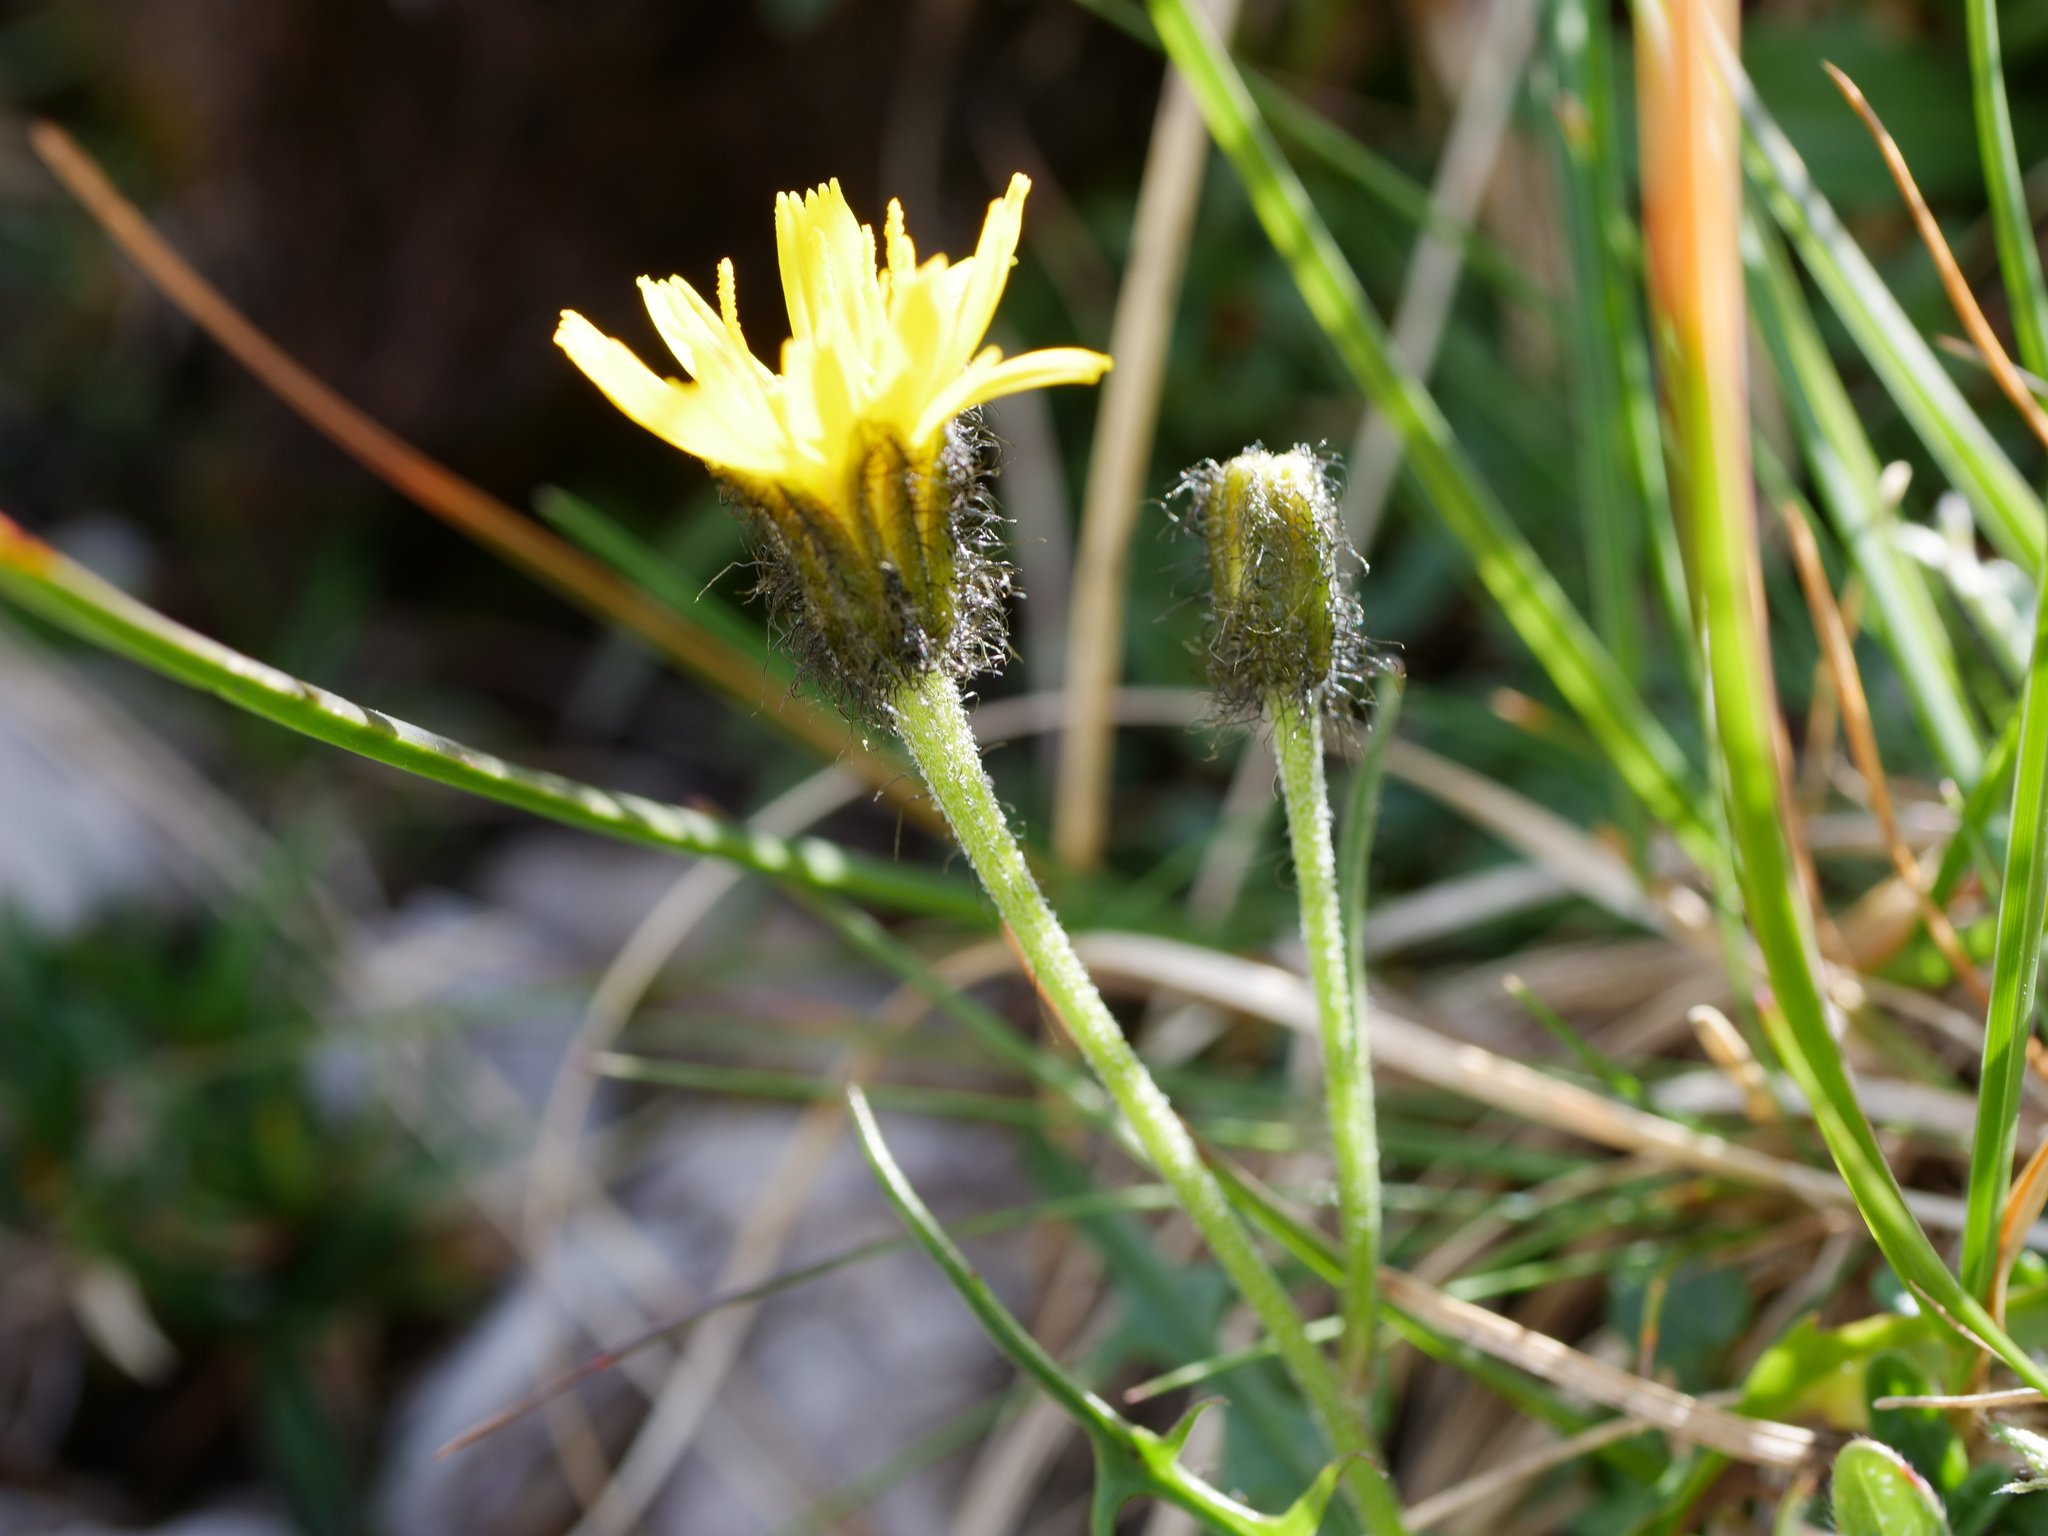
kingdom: Plantae
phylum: Tracheophyta
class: Magnoliopsida
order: Asterales
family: Asteraceae
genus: Crepis
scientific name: Crepis jacquinii
